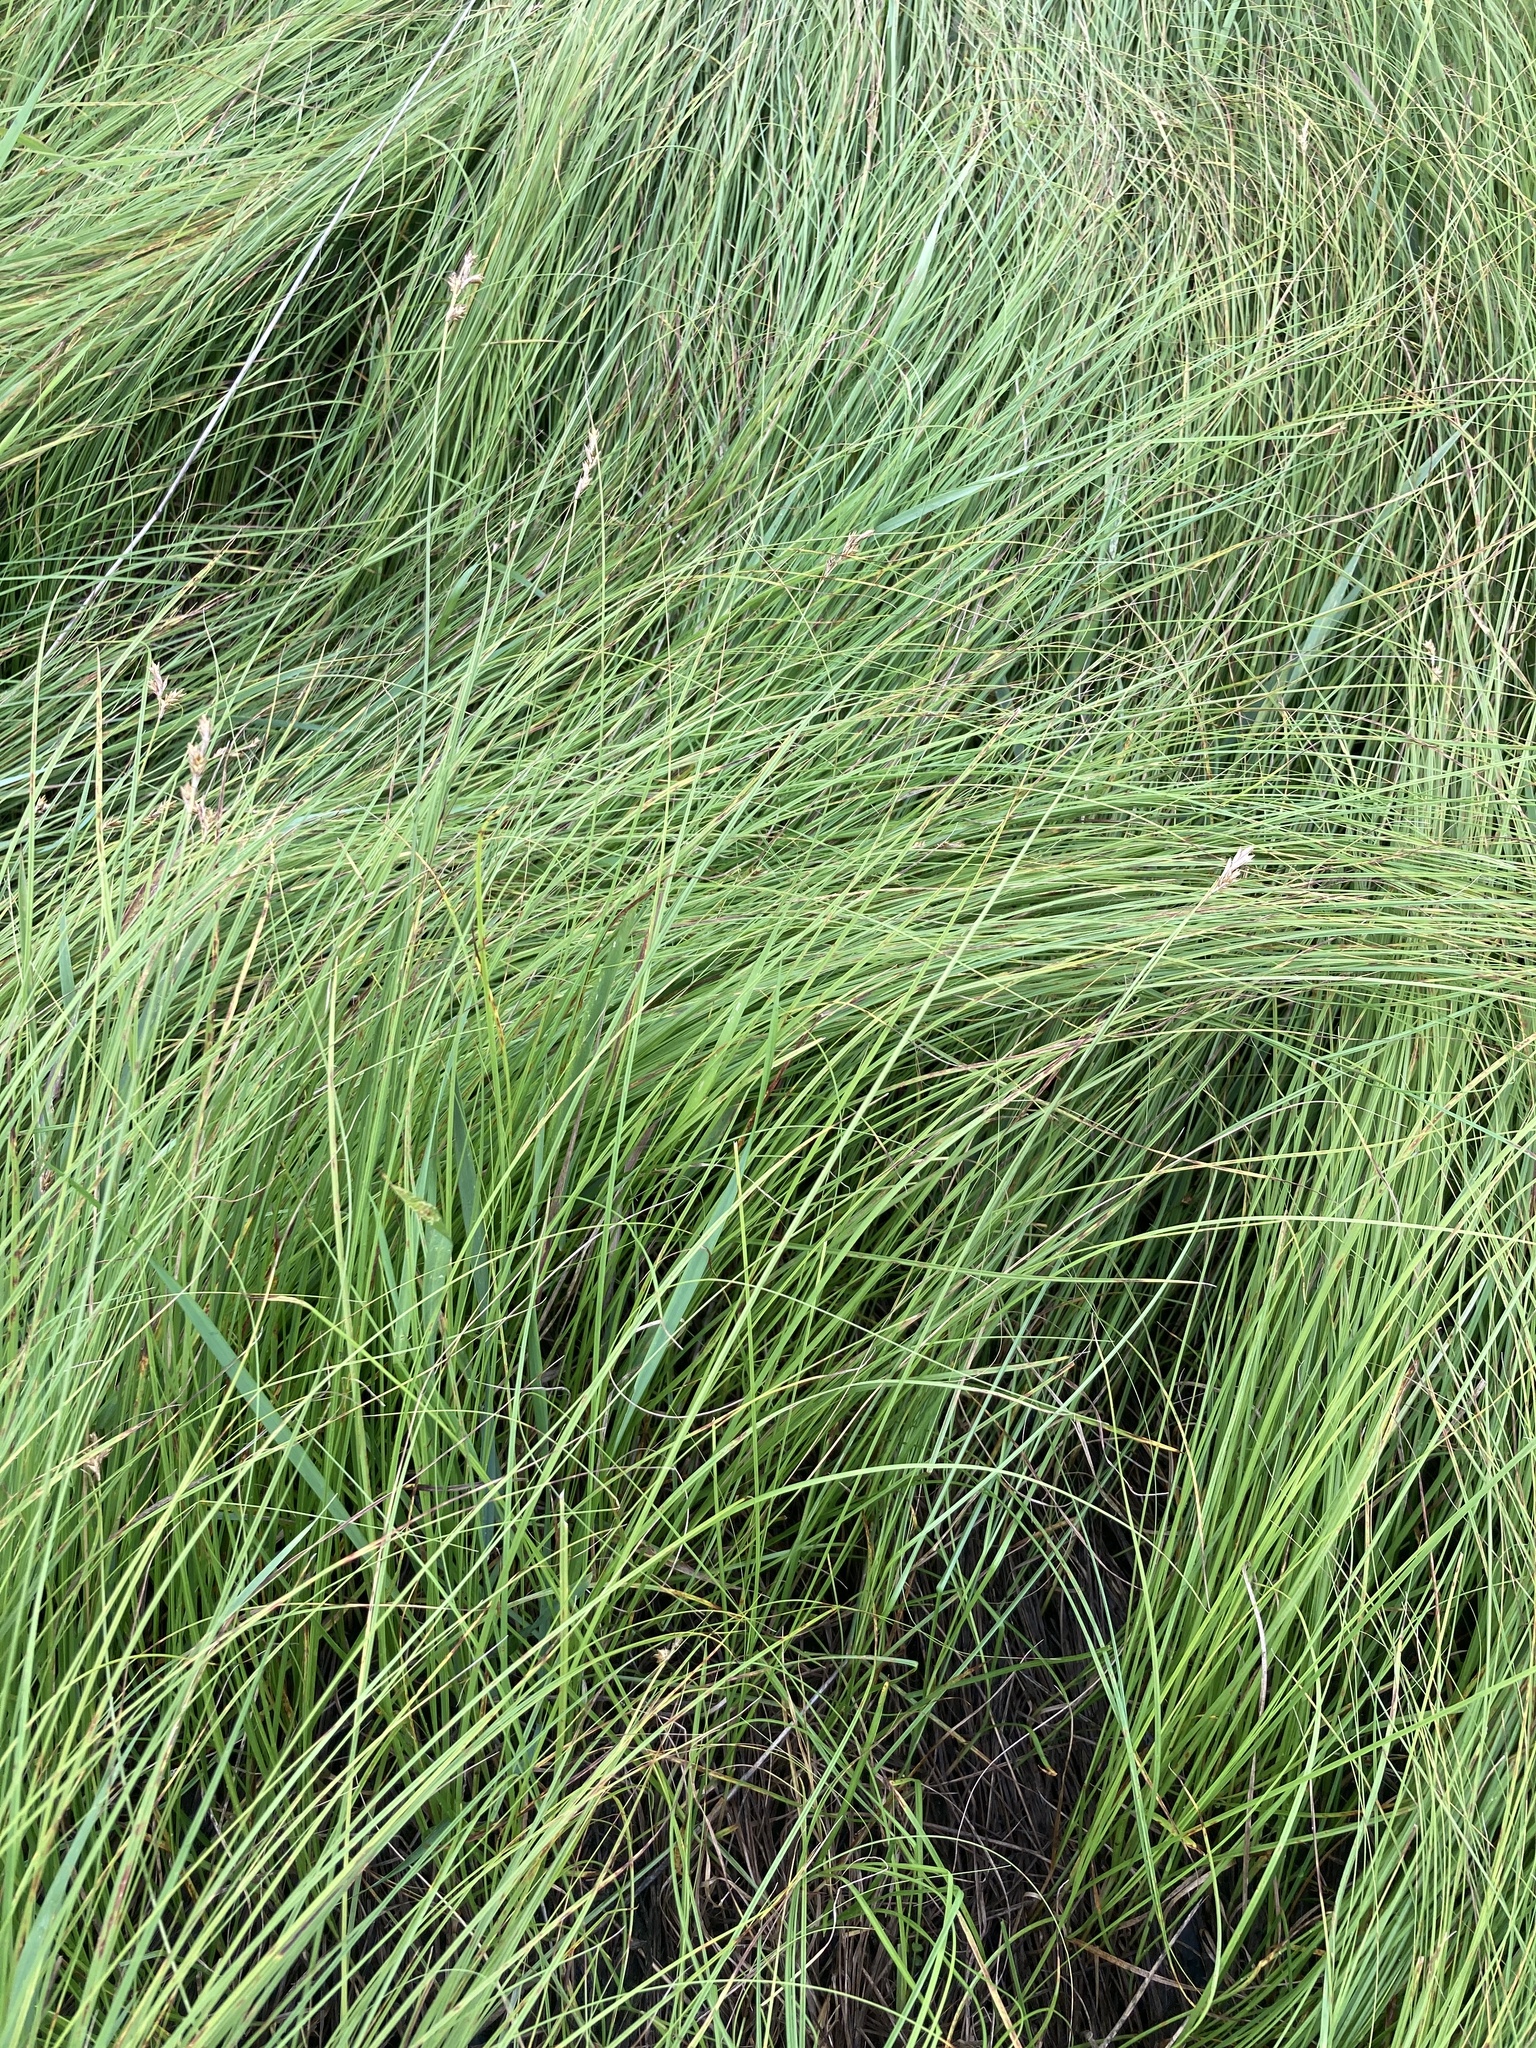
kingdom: Plantae
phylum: Tracheophyta
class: Liliopsida
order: Poales
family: Cyperaceae
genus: Carex
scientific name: Carex praecox
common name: Early sedge
